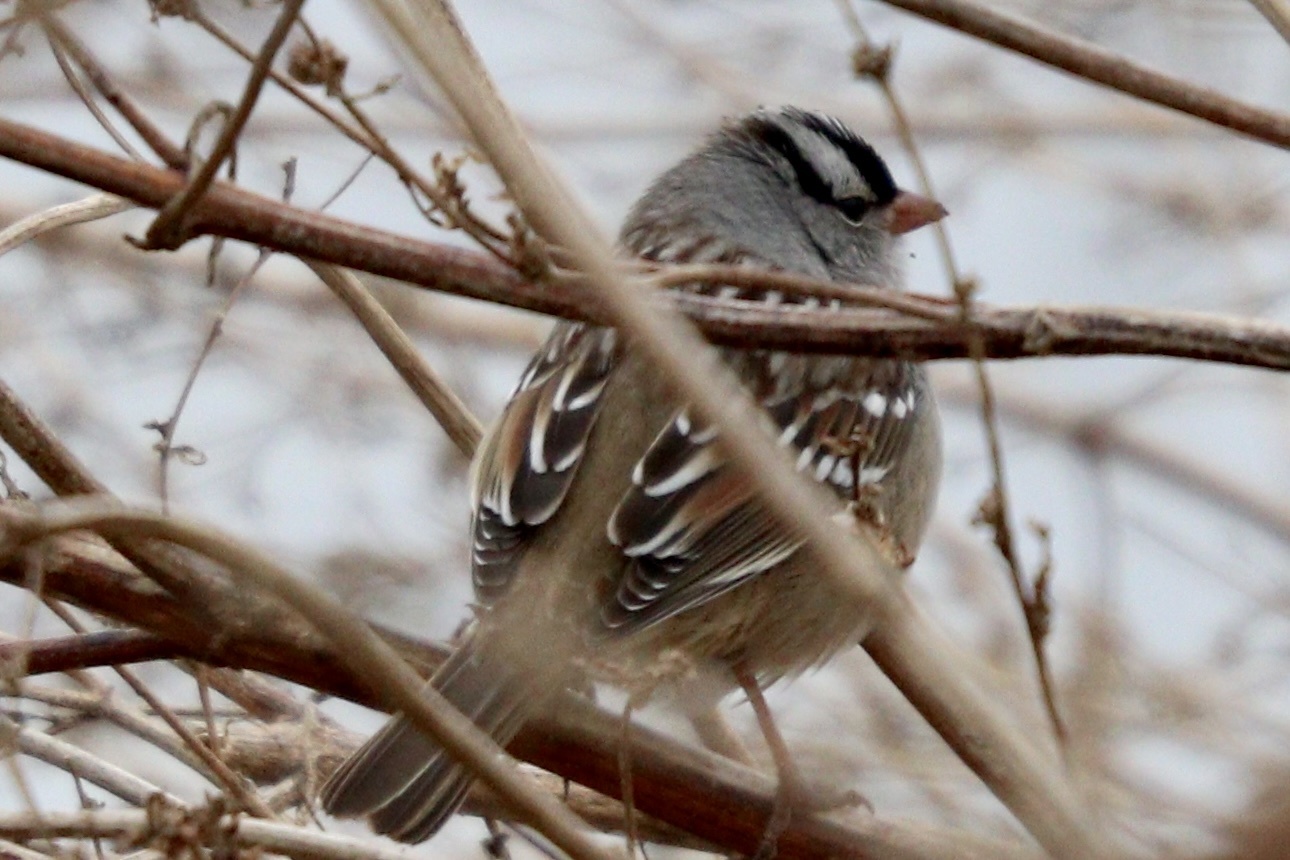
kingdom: Animalia
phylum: Chordata
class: Aves
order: Passeriformes
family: Passerellidae
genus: Zonotrichia
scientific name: Zonotrichia leucophrys
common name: White-crowned sparrow
